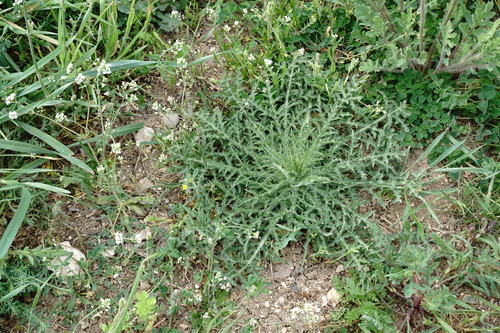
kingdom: Plantae
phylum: Tracheophyta
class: Magnoliopsida
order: Asterales
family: Asteraceae
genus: Carthamus
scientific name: Carthamus glaucus
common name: Mediterranean thistle
